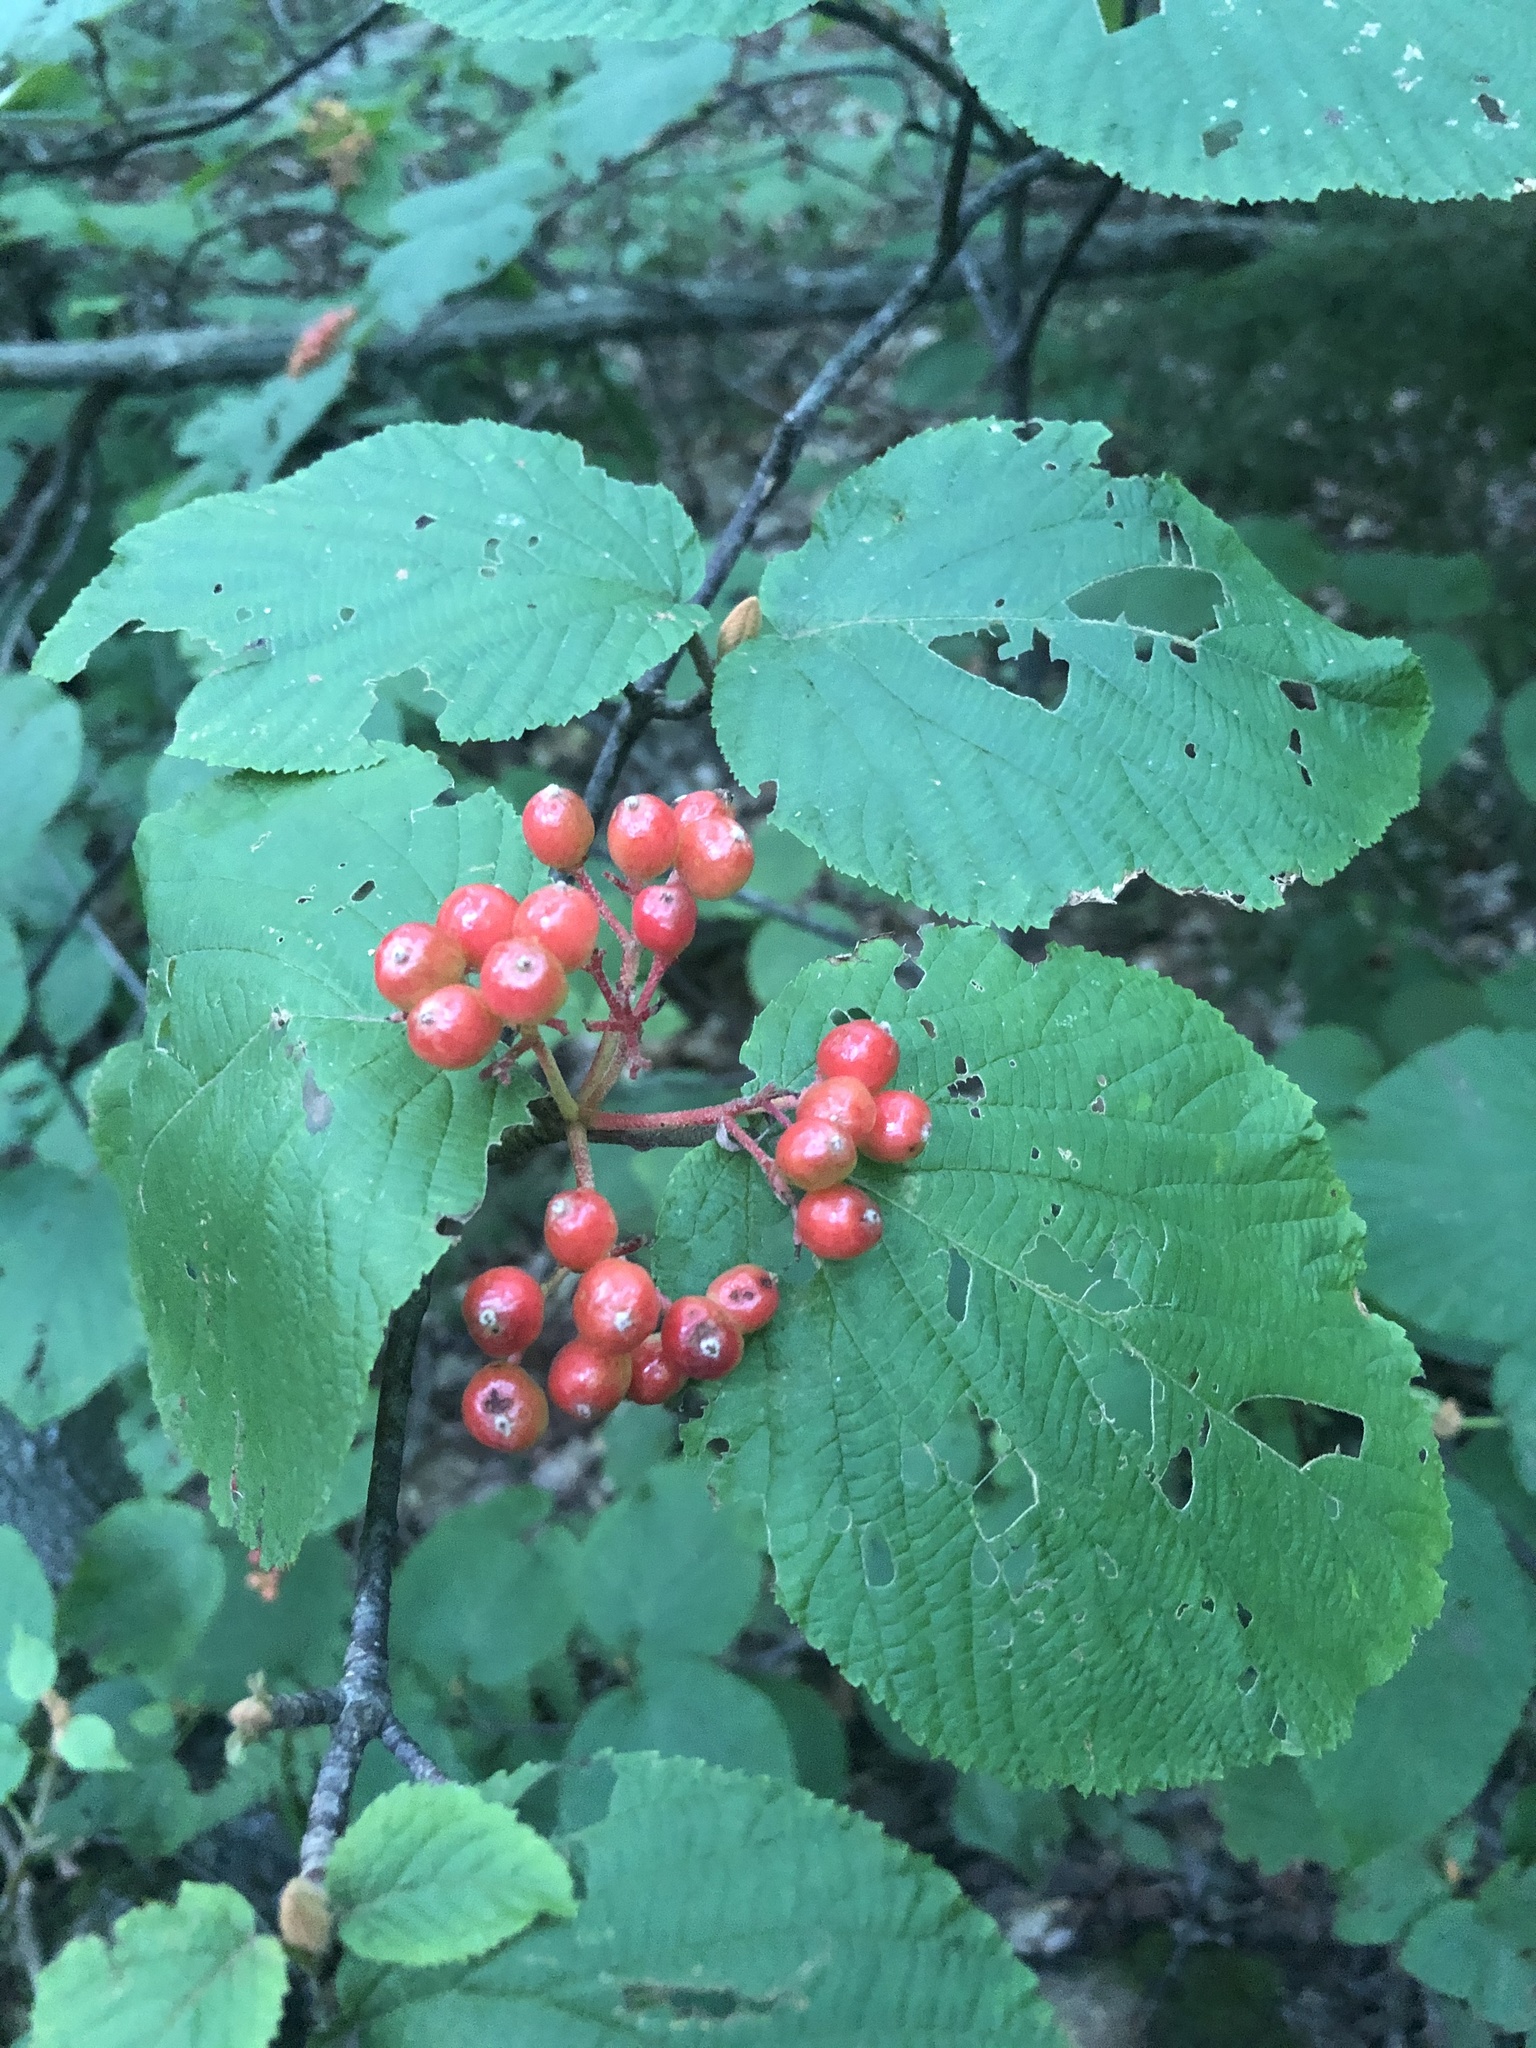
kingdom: Plantae
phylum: Tracheophyta
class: Magnoliopsida
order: Dipsacales
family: Viburnaceae
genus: Viburnum
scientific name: Viburnum lantanoides
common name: Hobblebush
